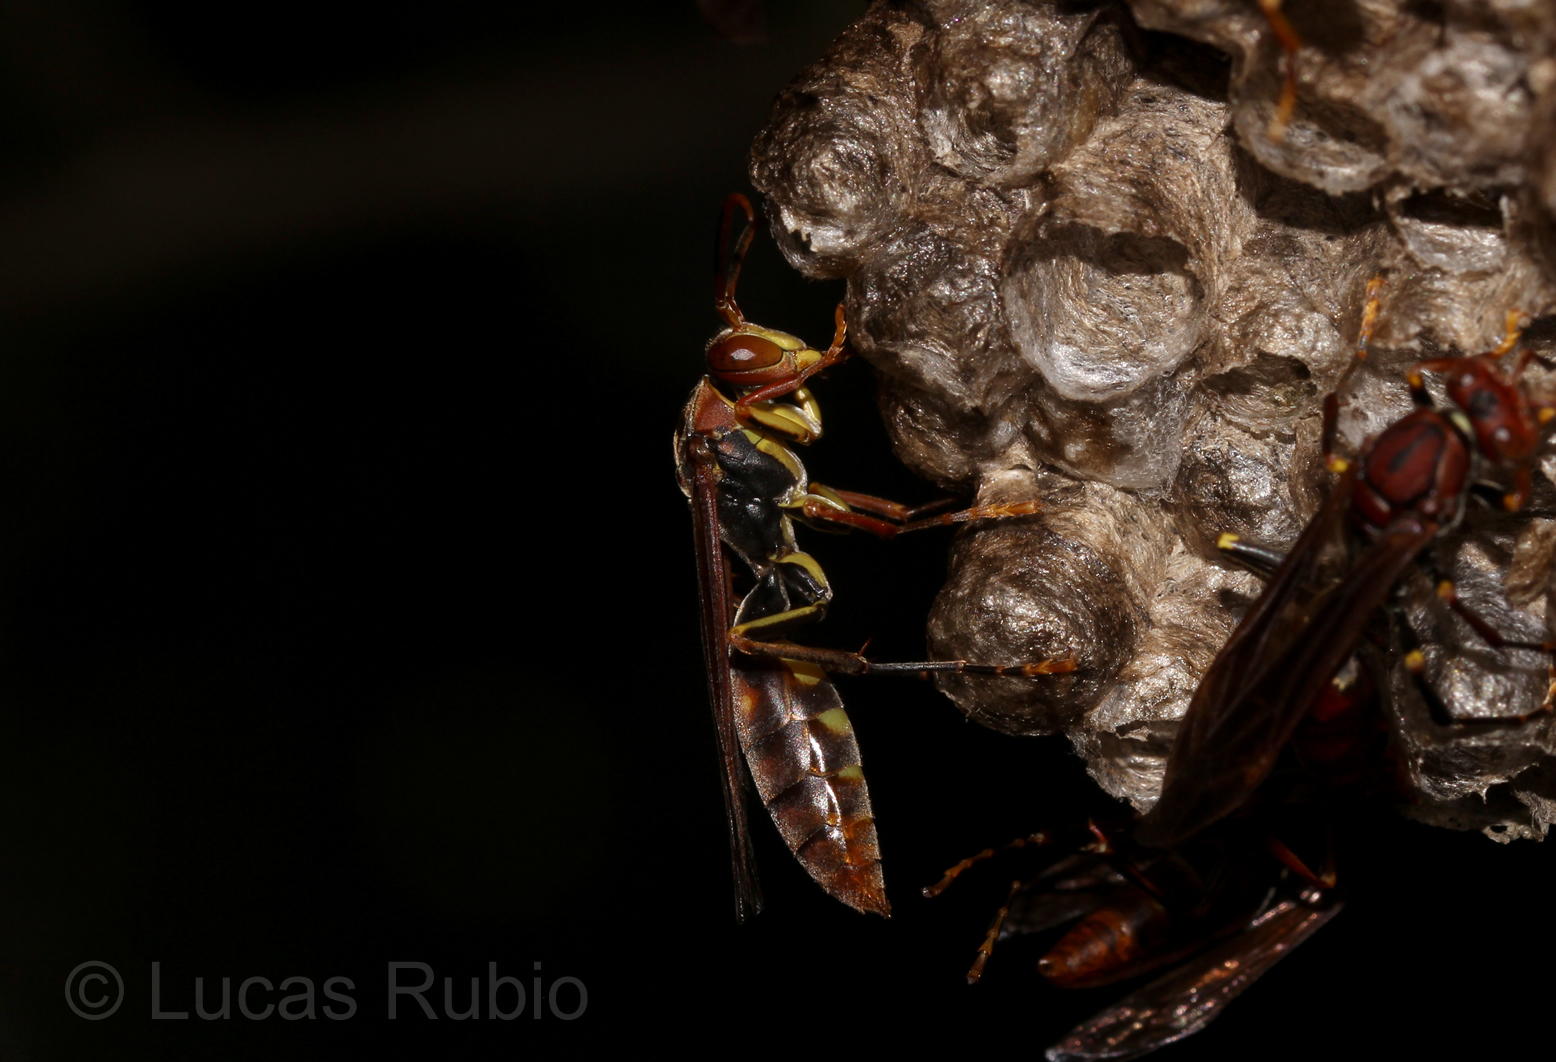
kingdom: Animalia
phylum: Arthropoda
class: Insecta
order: Hymenoptera
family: Pompilidae
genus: Aphanilopterus
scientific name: Aphanilopterus
